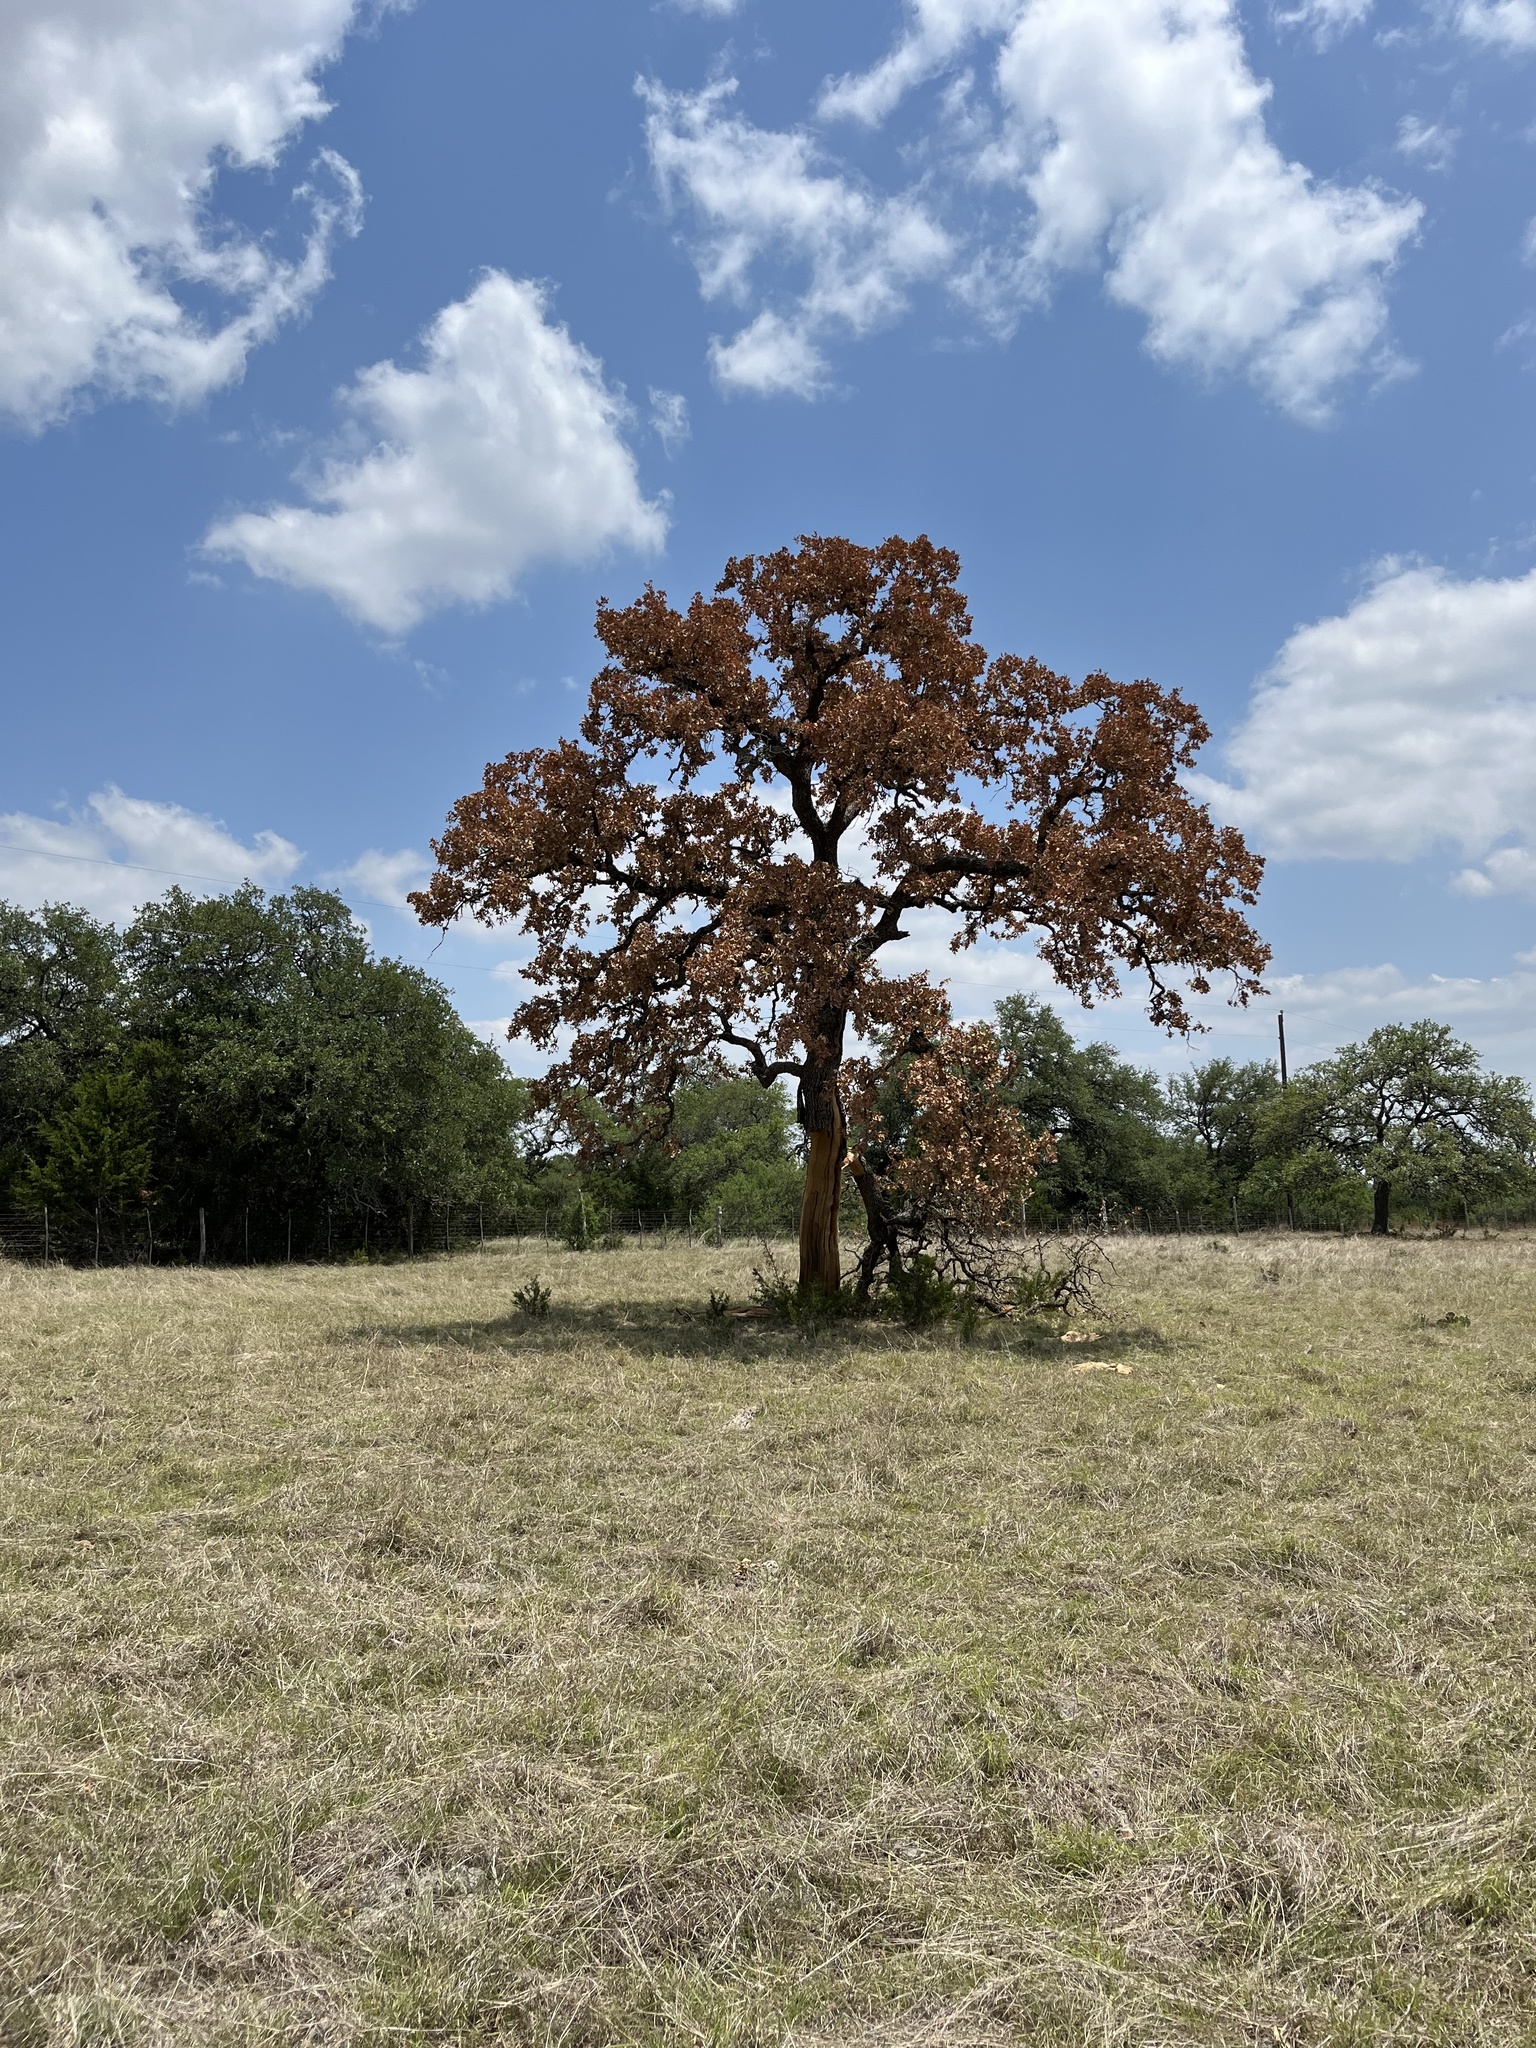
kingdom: Plantae
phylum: Tracheophyta
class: Magnoliopsida
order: Fagales
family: Fagaceae
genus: Quercus
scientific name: Quercus stellata
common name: Post oak
